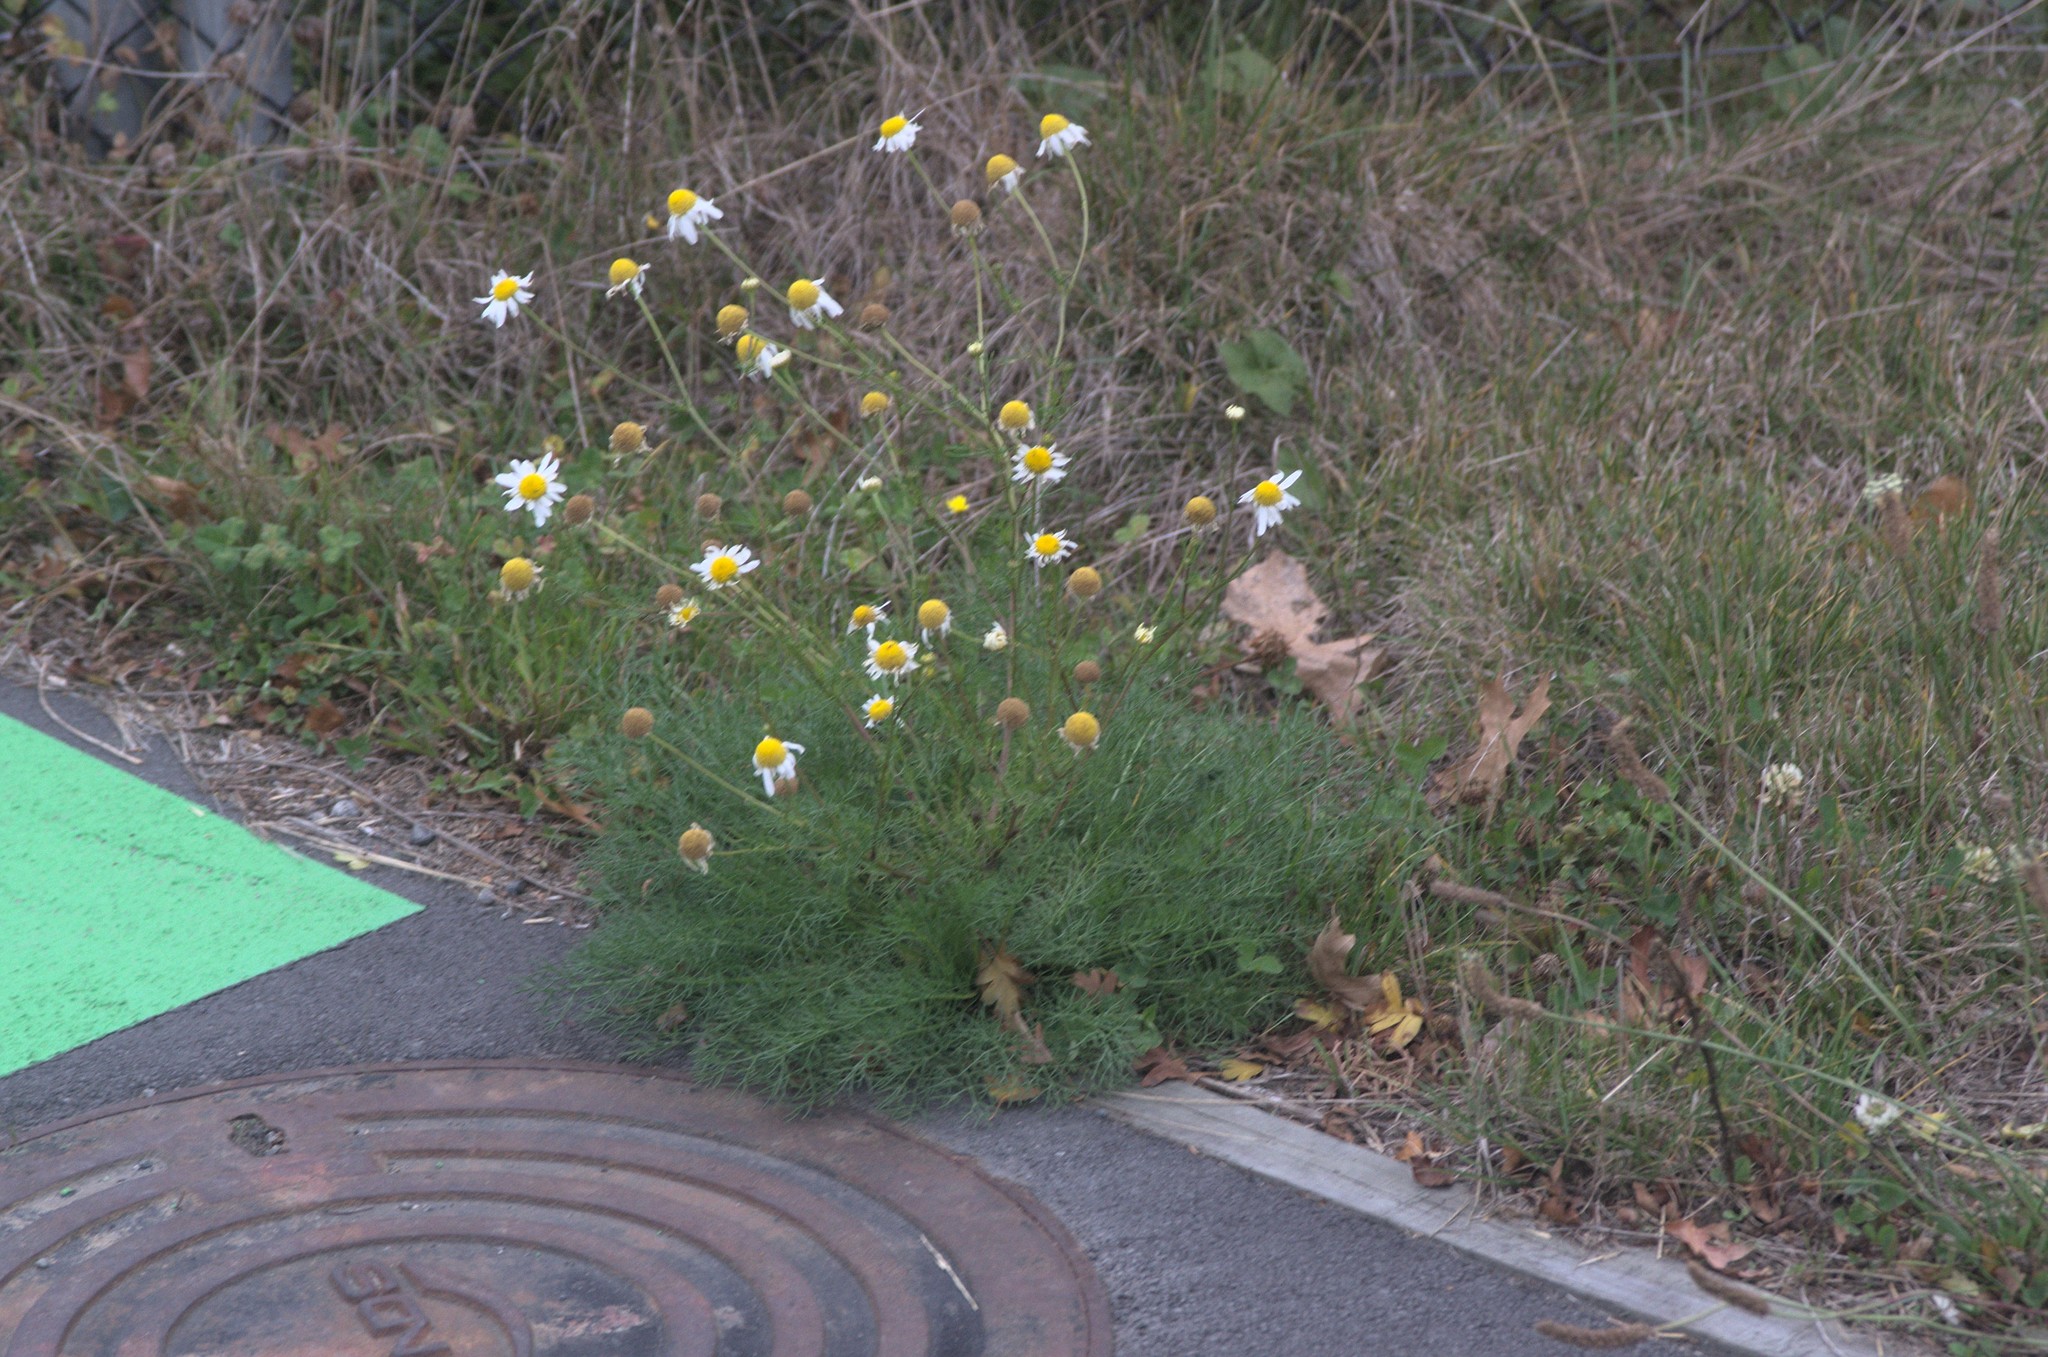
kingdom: Plantae
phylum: Tracheophyta
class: Magnoliopsida
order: Asterales
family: Asteraceae
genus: Tripleurospermum
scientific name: Tripleurospermum inodorum
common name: Scentless mayweed
